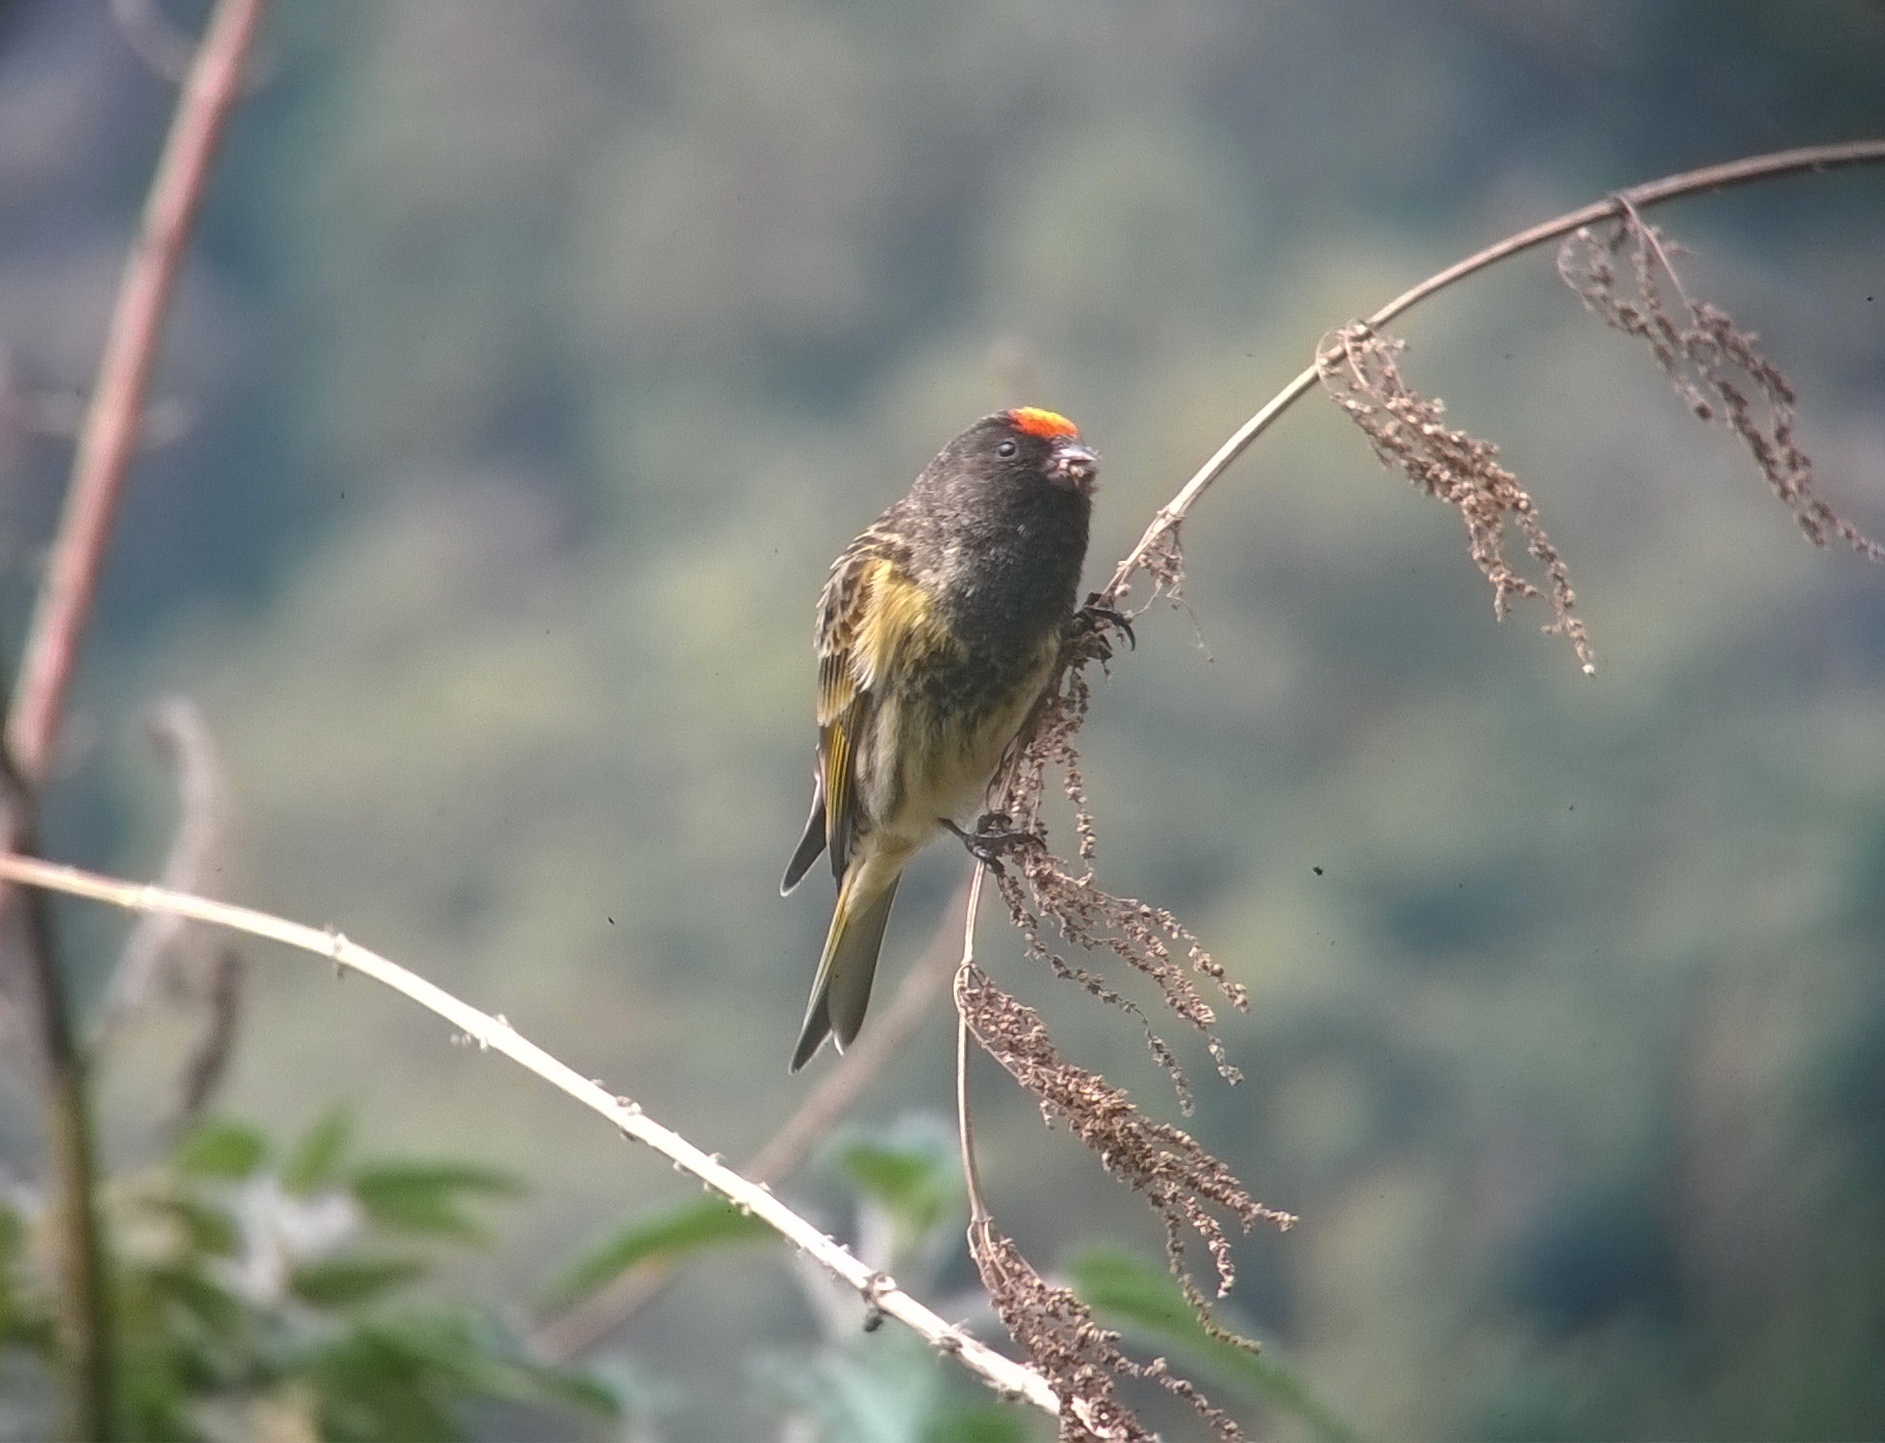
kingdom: Animalia
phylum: Chordata
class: Aves
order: Passeriformes
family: Fringillidae
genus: Serinus
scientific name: Serinus pusillus
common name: Red-fronted serin
